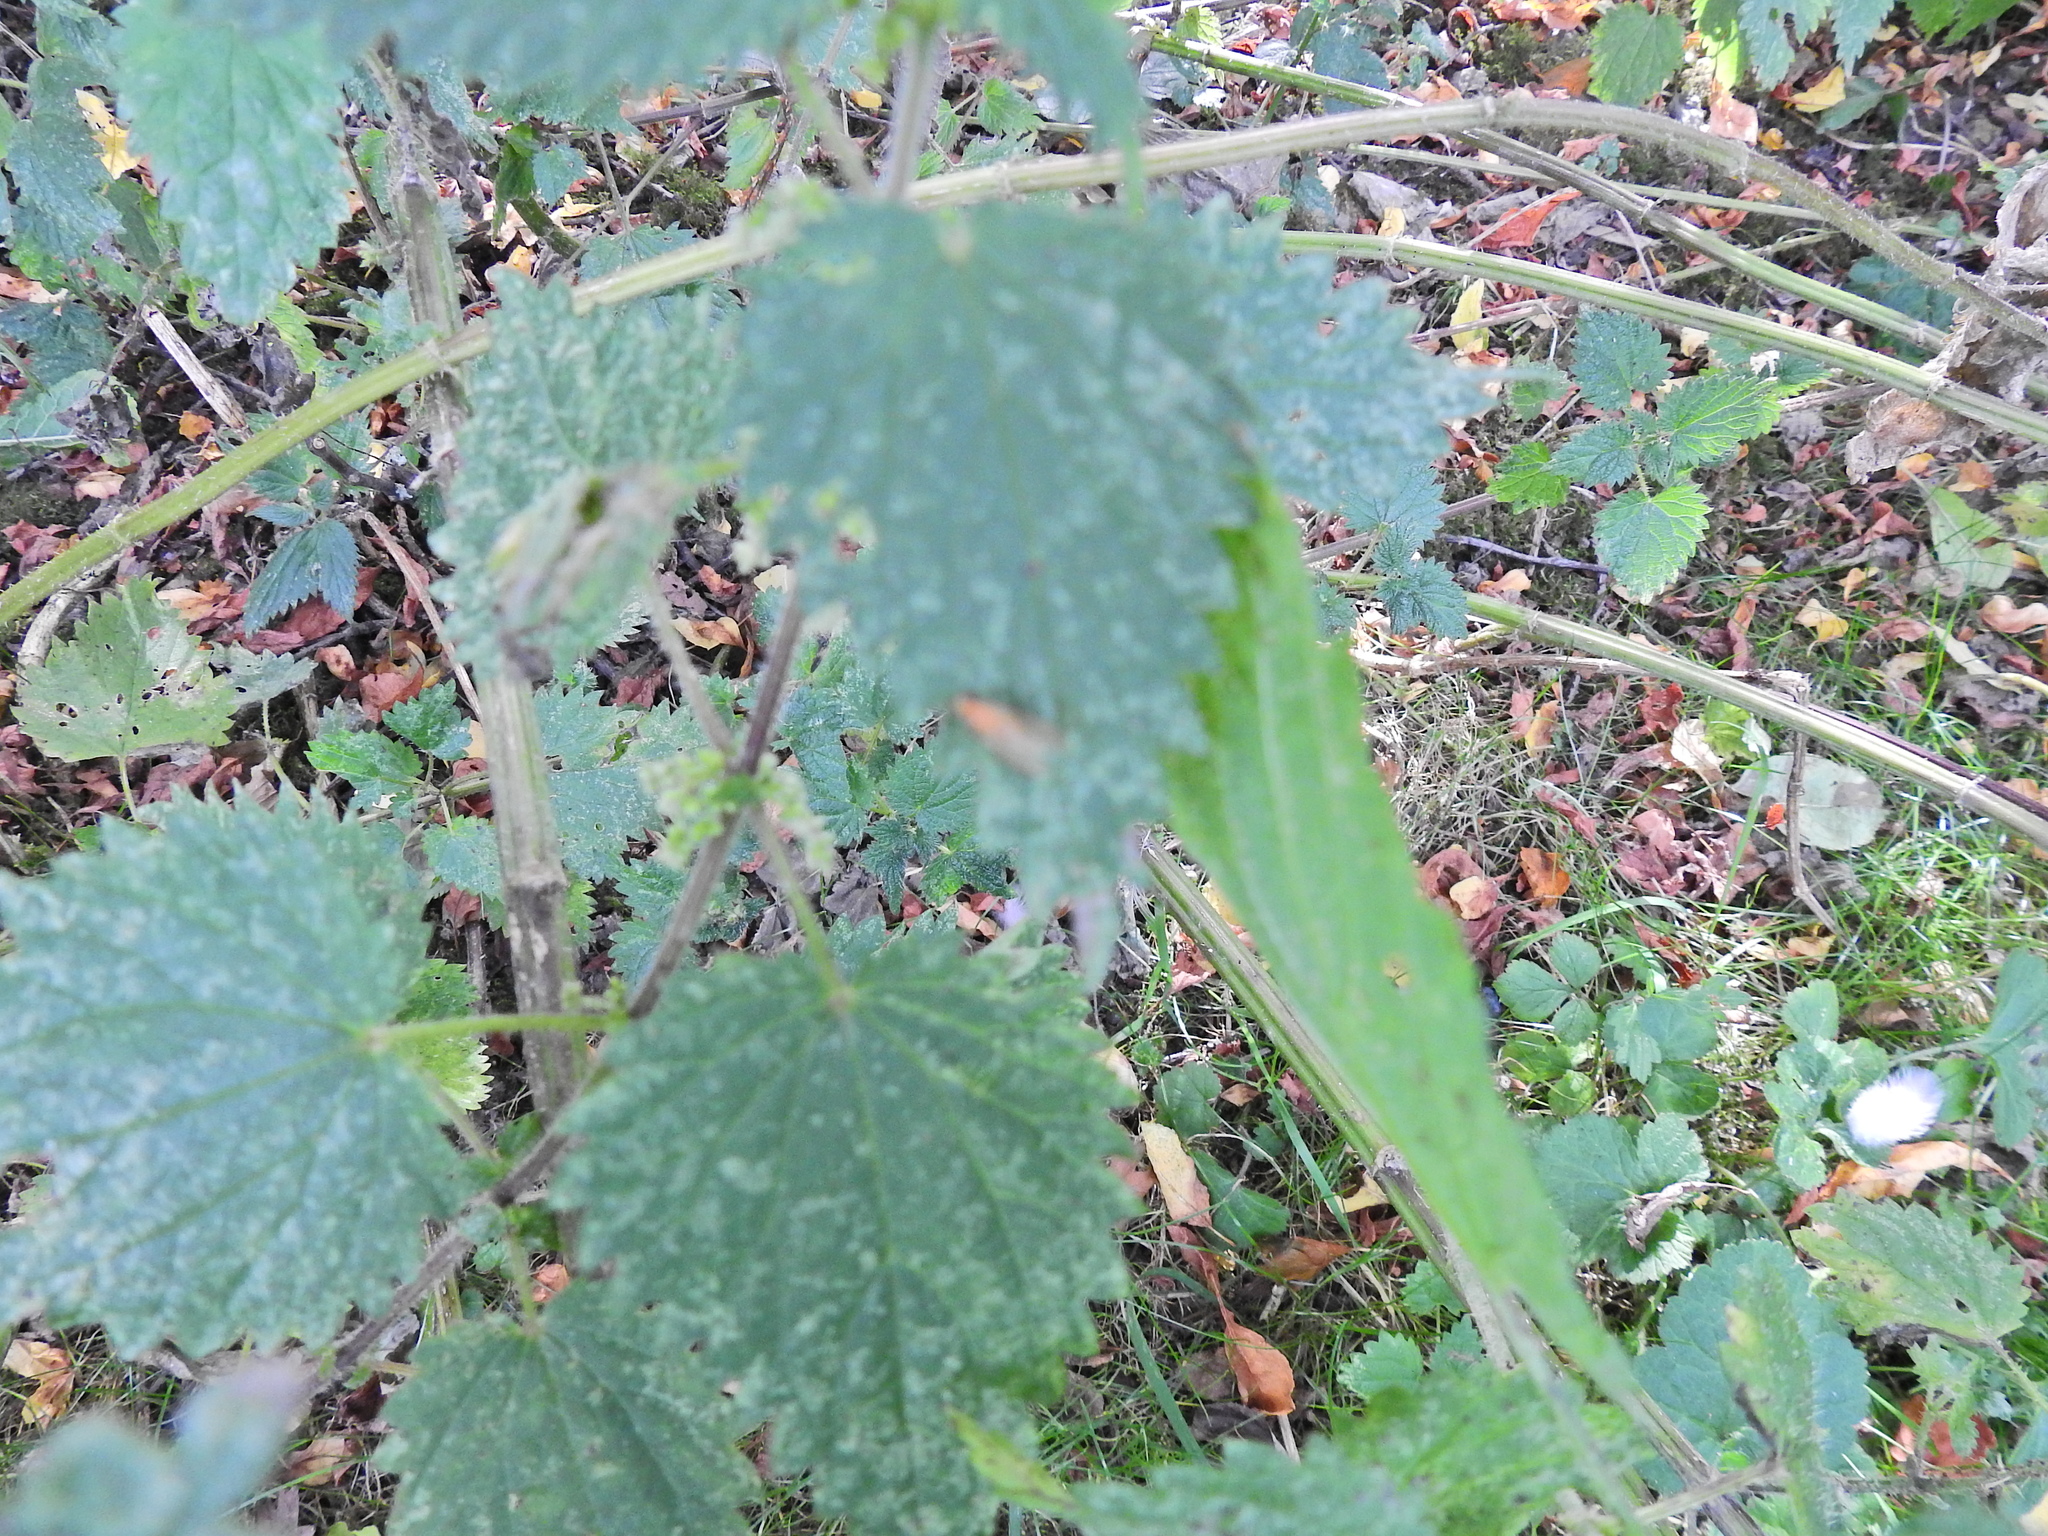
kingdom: Plantae
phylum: Tracheophyta
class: Magnoliopsida
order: Rosales
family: Urticaceae
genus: Urtica
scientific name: Urtica dioica
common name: Common nettle
